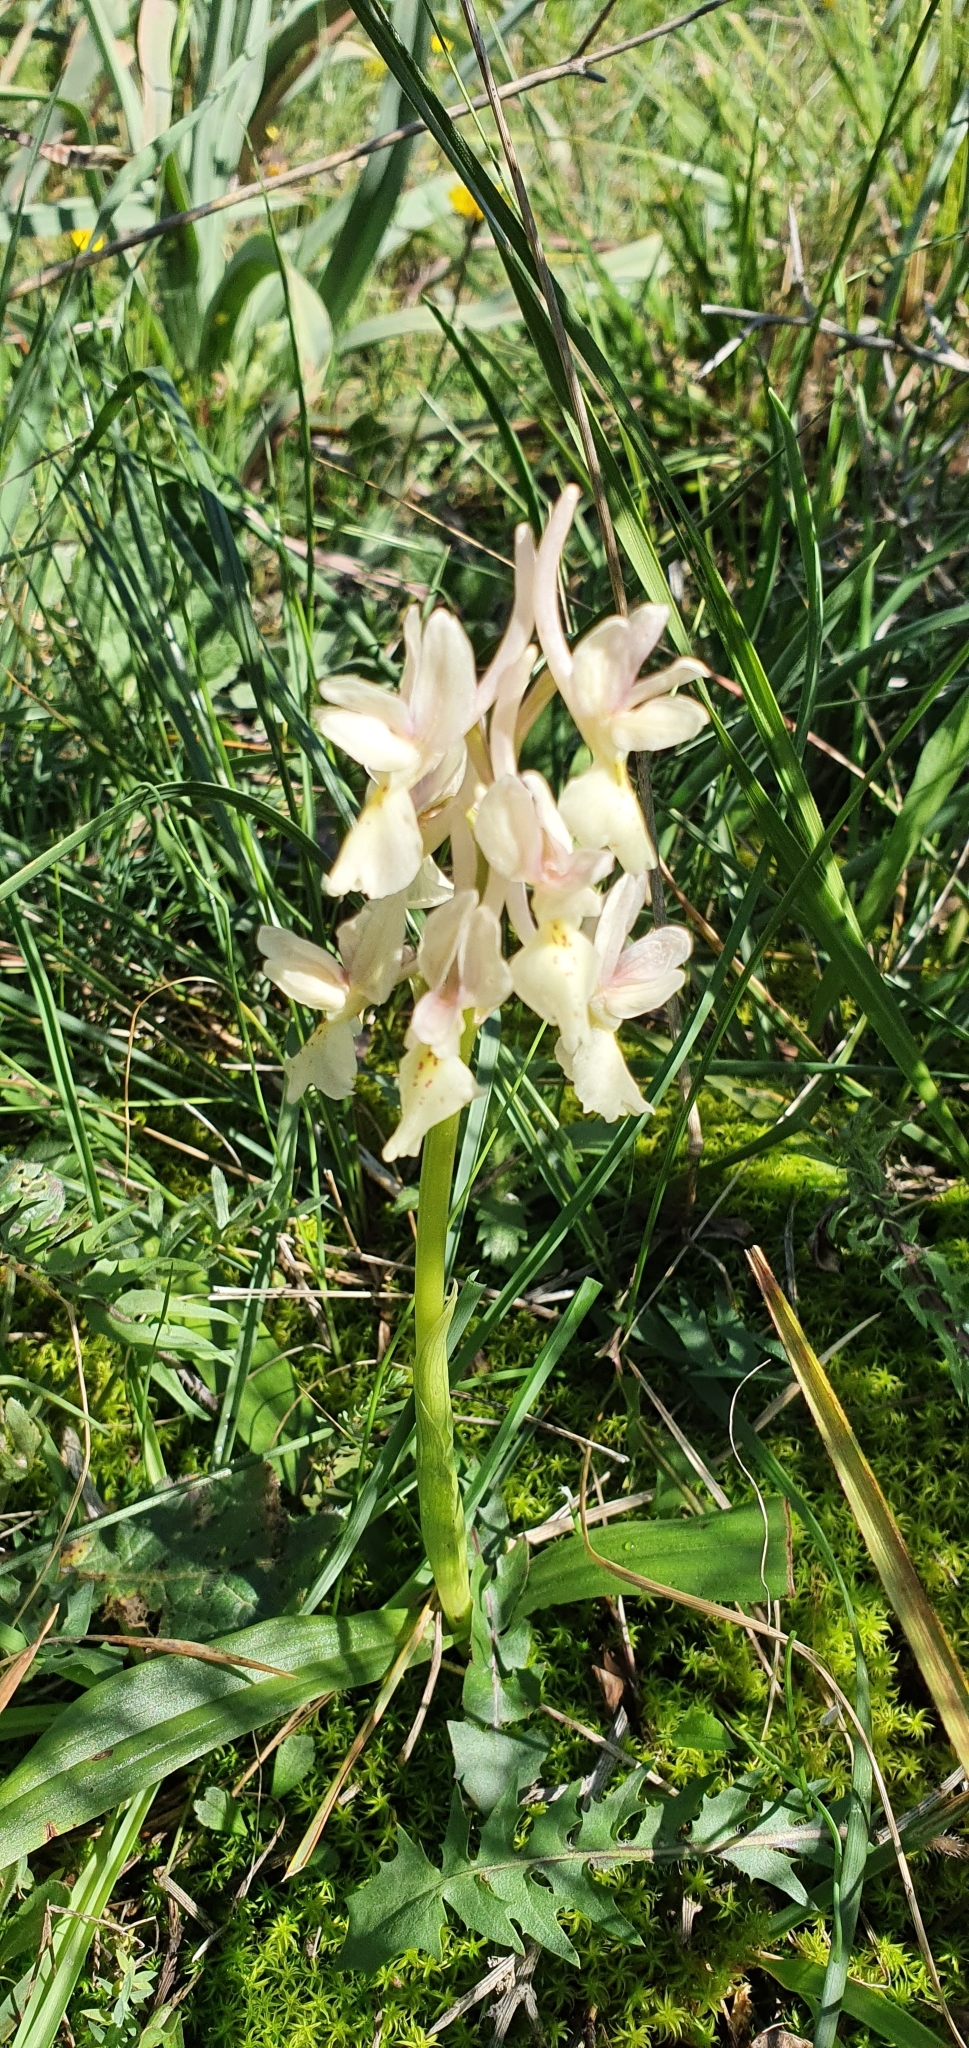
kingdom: Plantae
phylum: Tracheophyta
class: Liliopsida
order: Asparagales
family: Orchidaceae
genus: Orchis
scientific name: Orchis laeta
